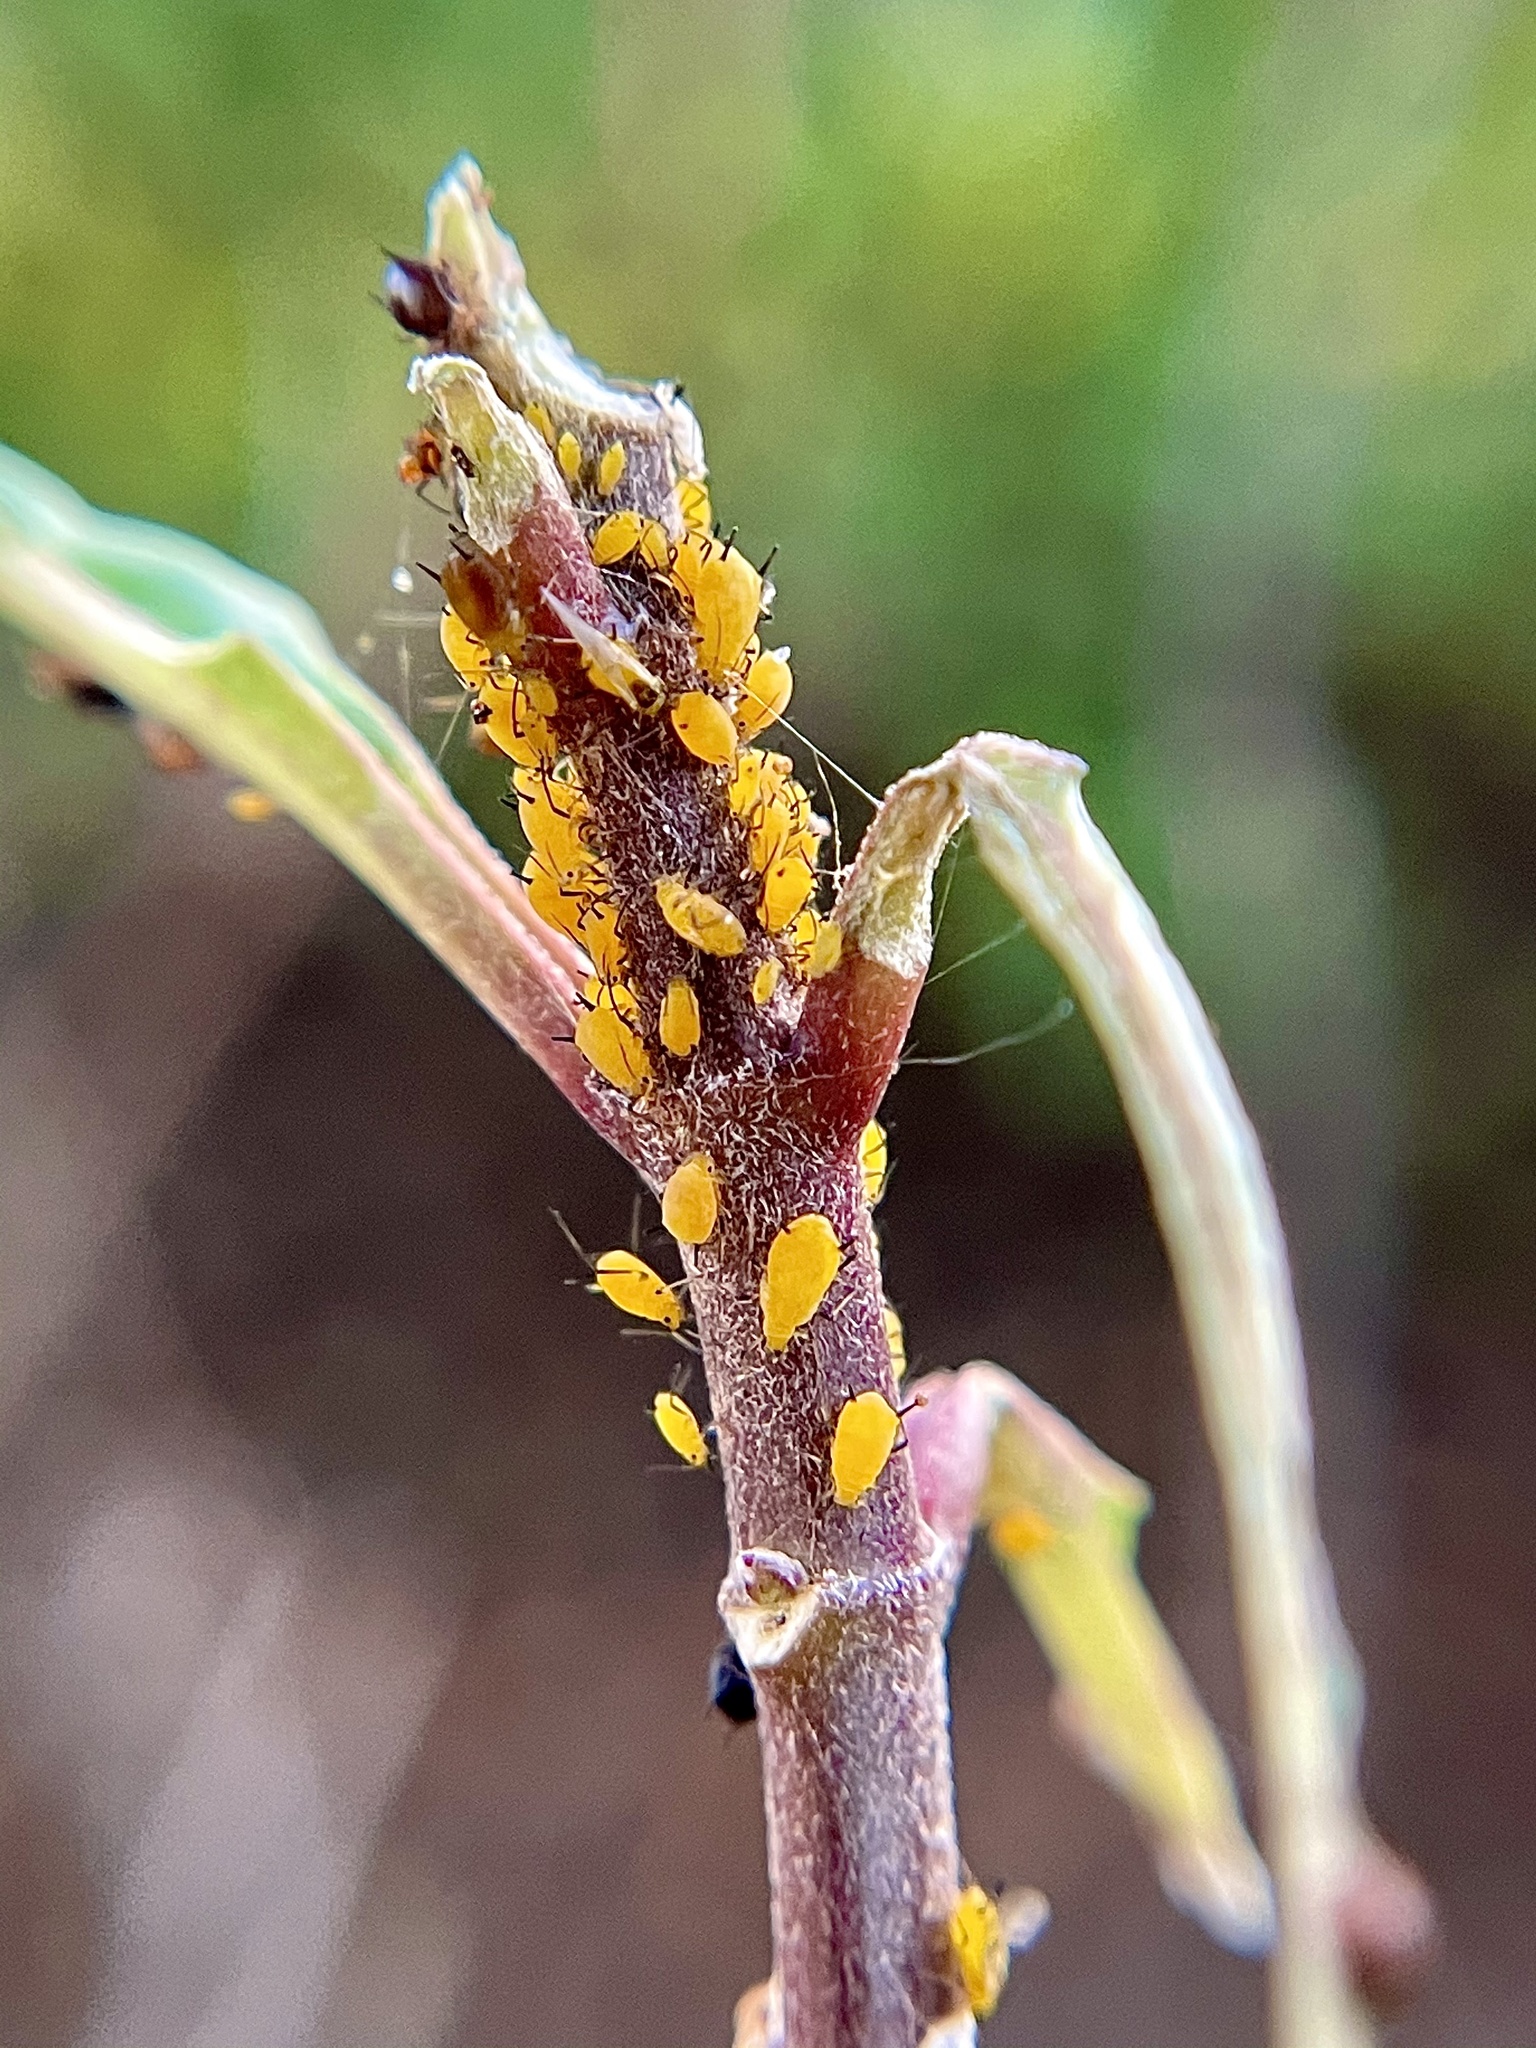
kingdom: Animalia
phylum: Arthropoda
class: Insecta
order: Hemiptera
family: Aphididae
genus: Aphis
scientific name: Aphis nerii
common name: Oleander aphid
